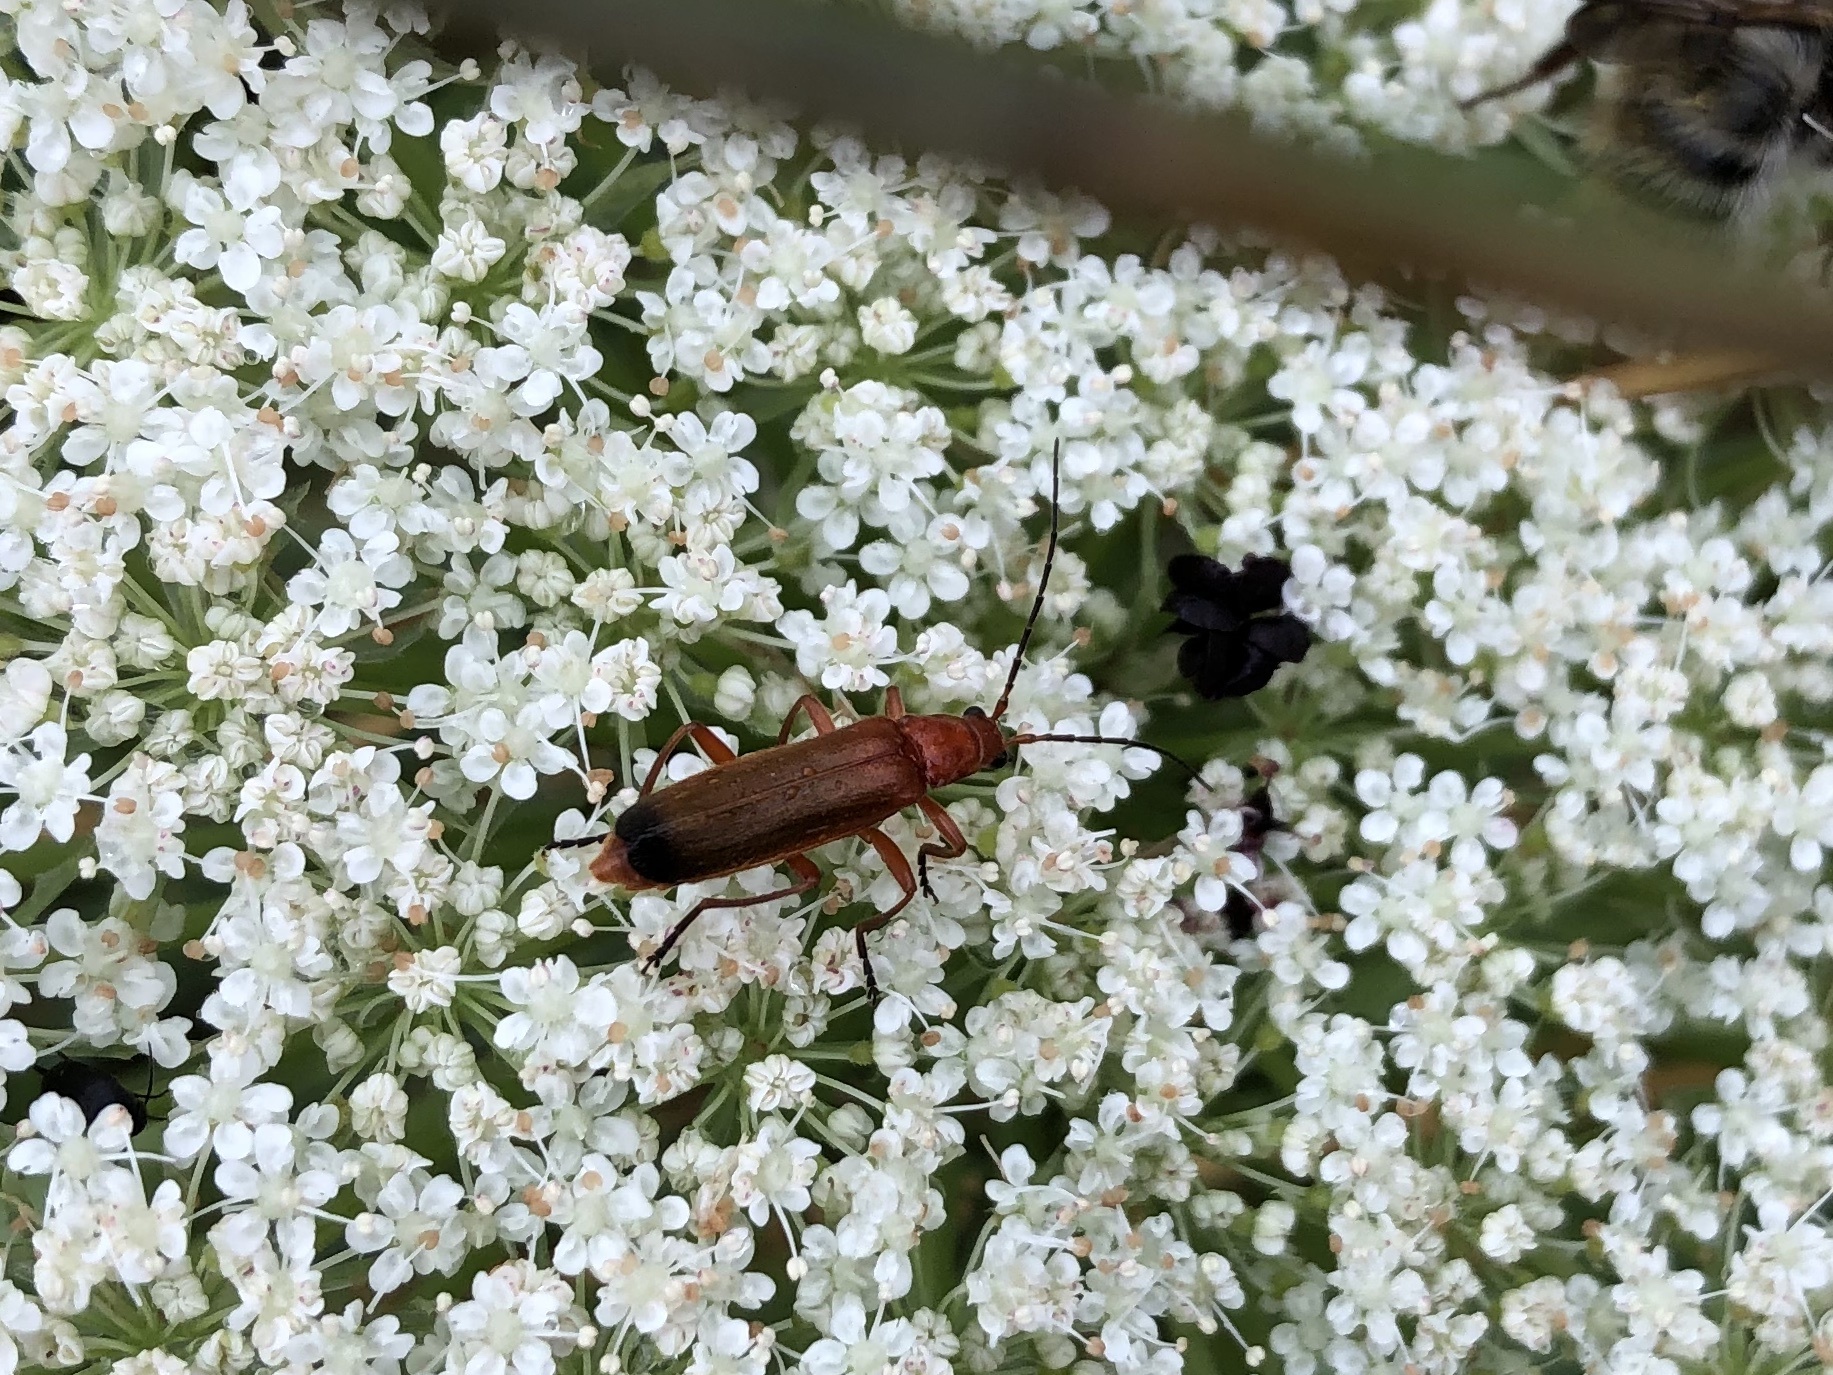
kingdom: Animalia
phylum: Arthropoda
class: Insecta
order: Coleoptera
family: Cantharidae
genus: Rhagonycha
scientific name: Rhagonycha fulva
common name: Common red soldier beetle
